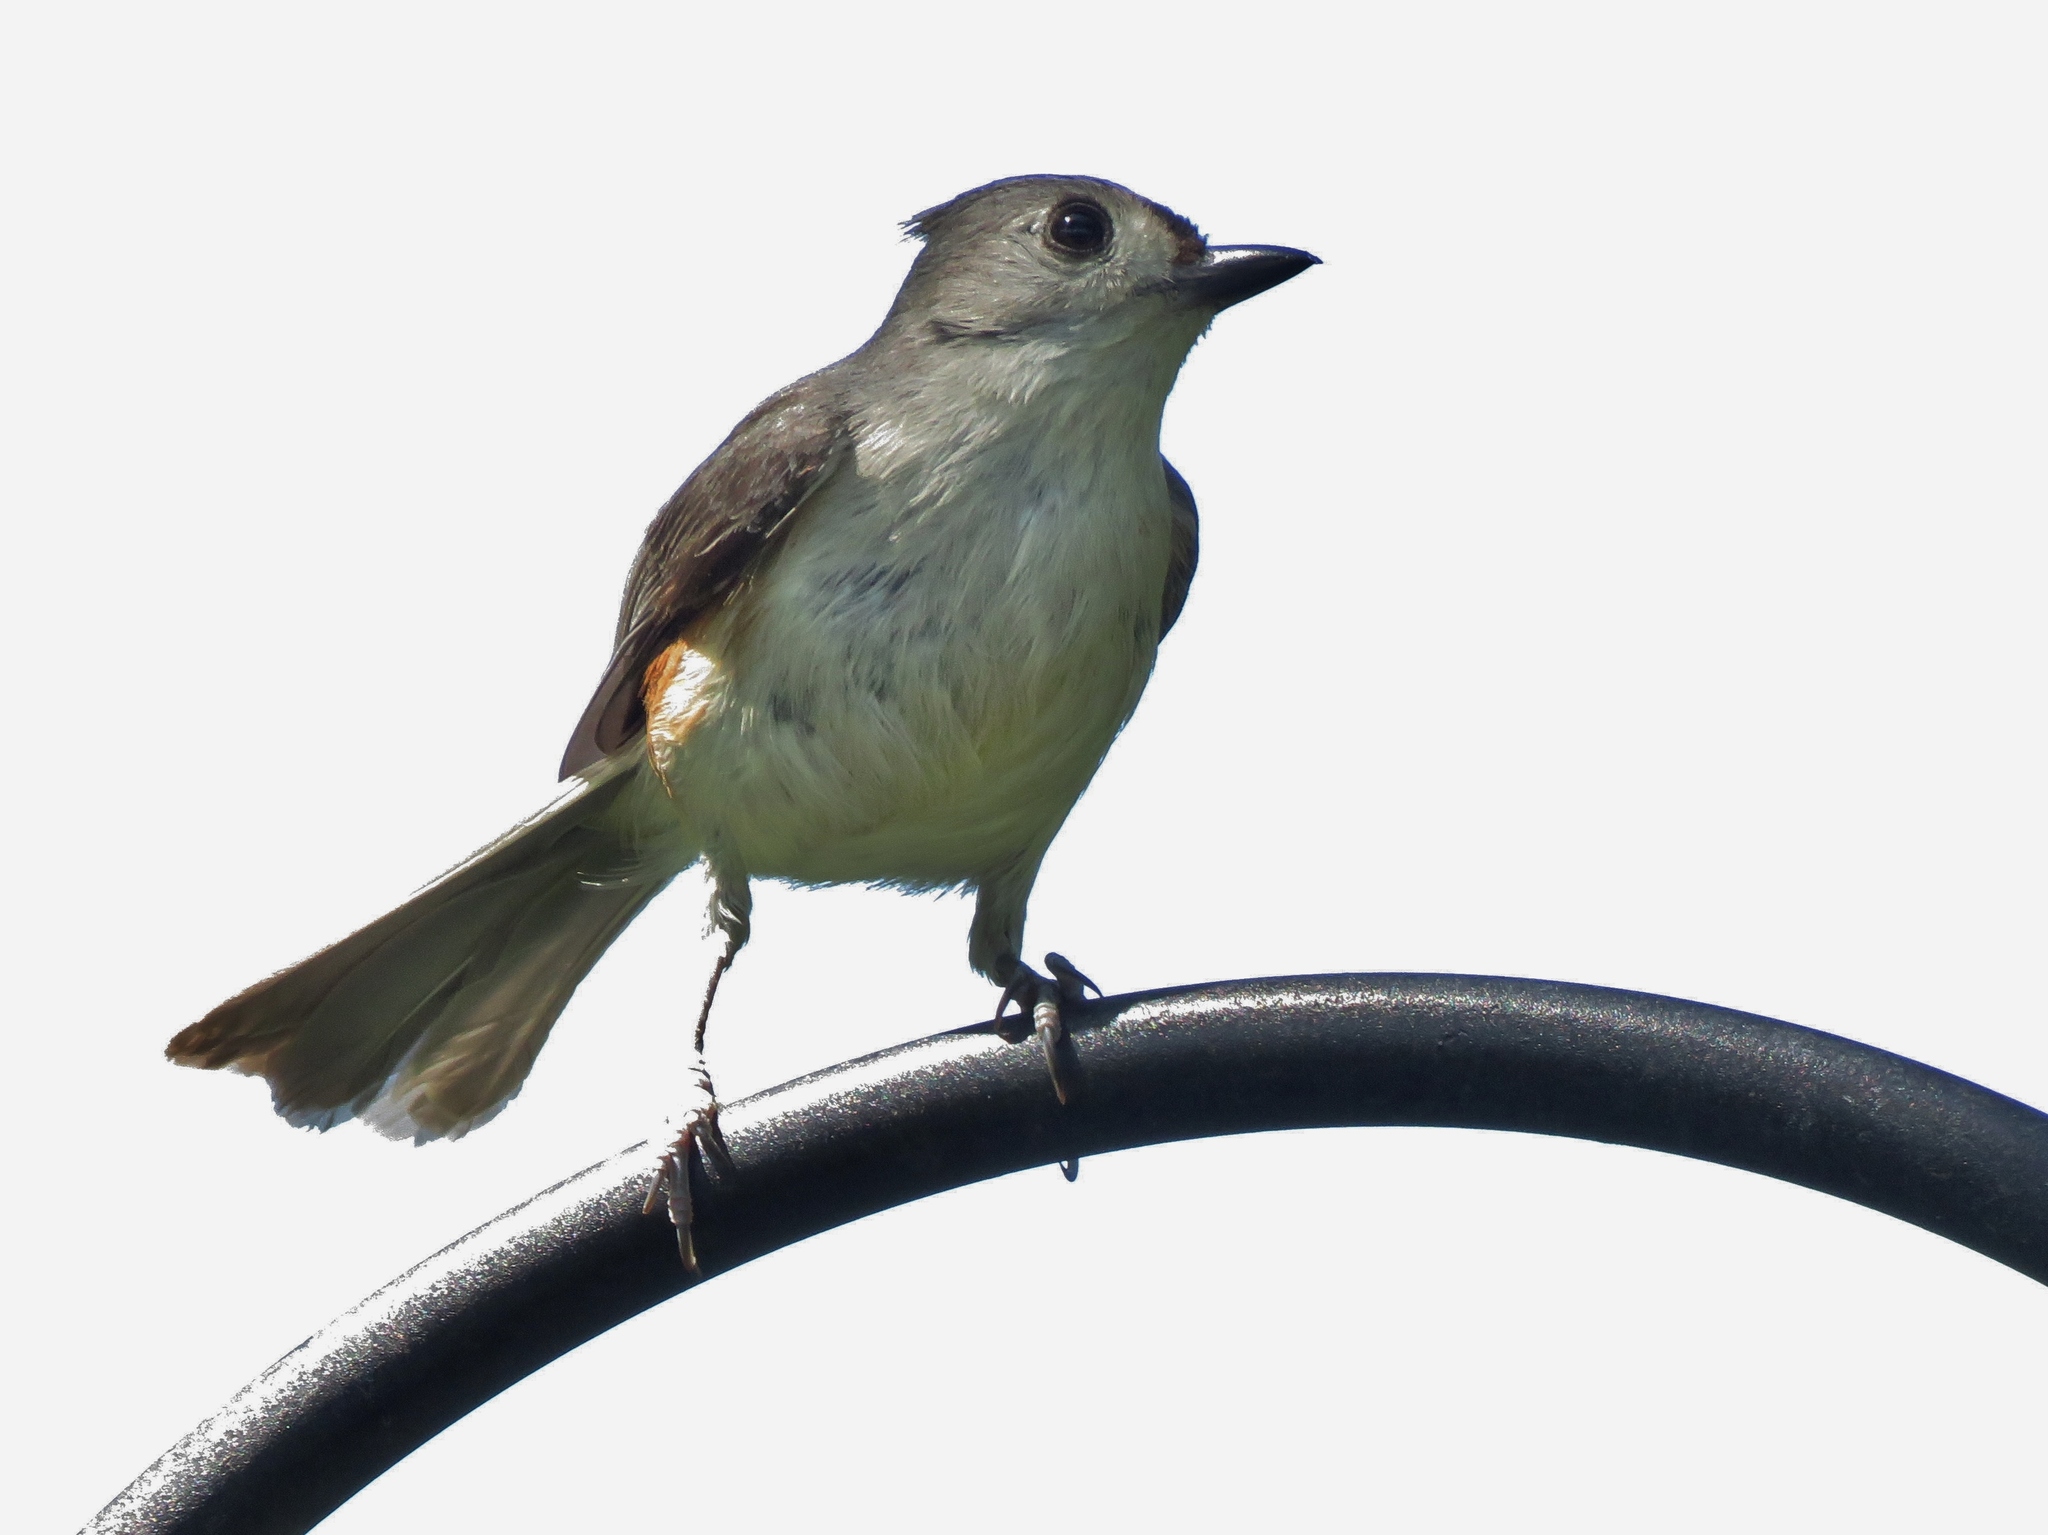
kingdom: Animalia
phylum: Chordata
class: Aves
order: Passeriformes
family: Paridae
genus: Baeolophus
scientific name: Baeolophus bicolor
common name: Tufted titmouse
